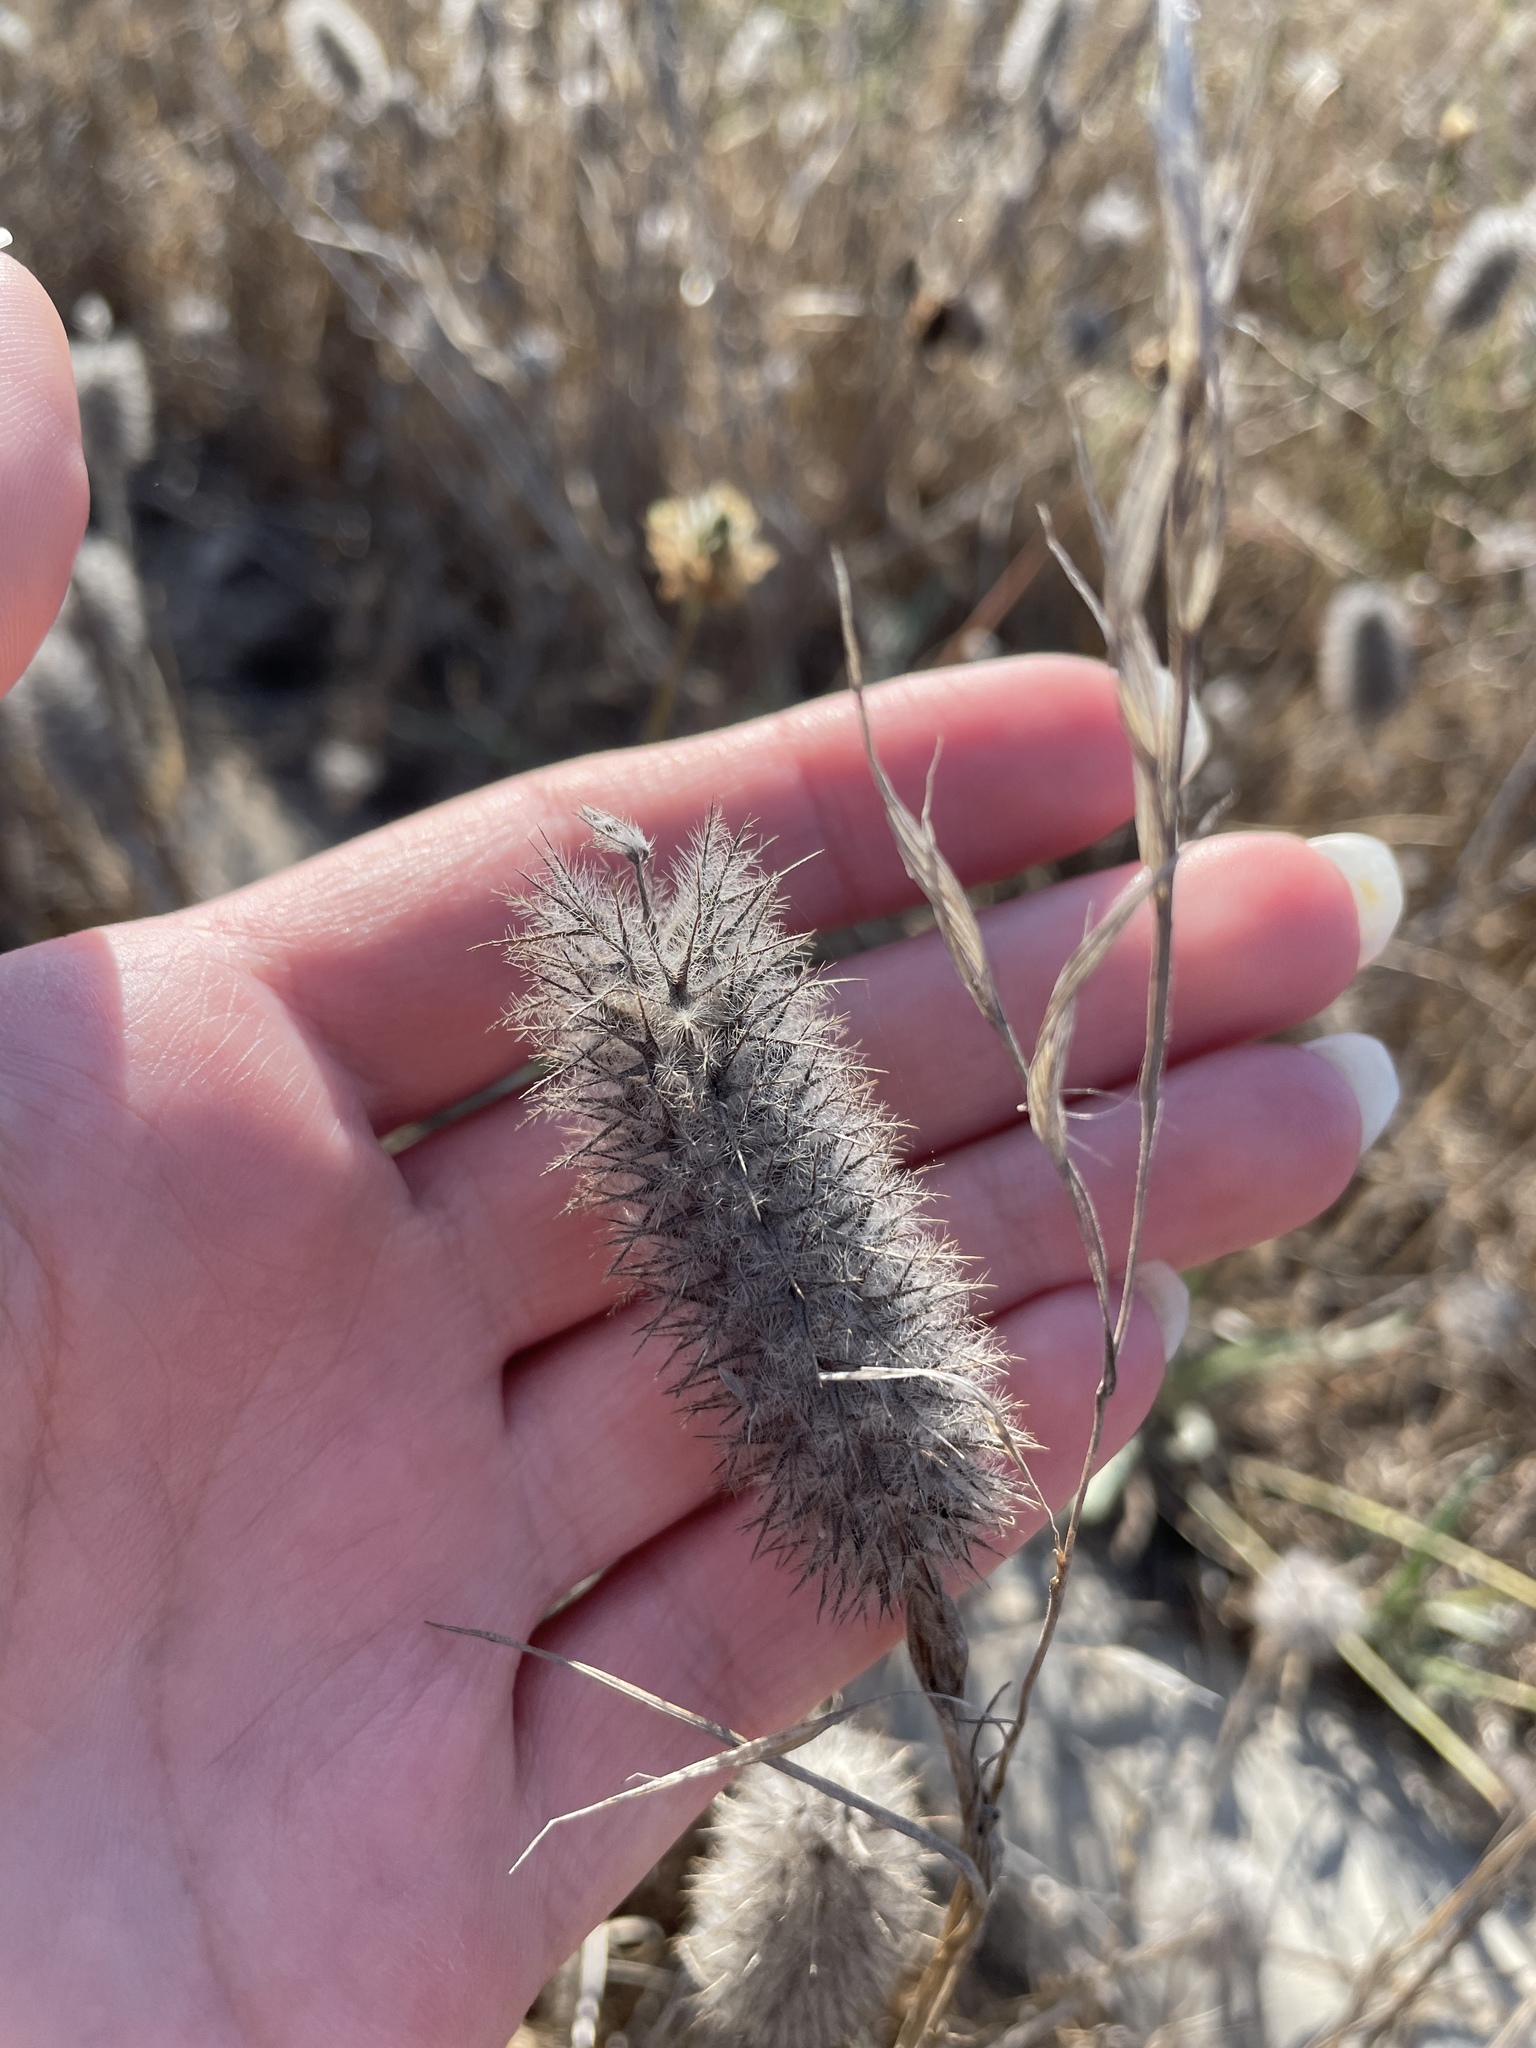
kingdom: Plantae
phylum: Tracheophyta
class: Magnoliopsida
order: Fabales
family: Fabaceae
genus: Trifolium
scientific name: Trifolium angustifolium
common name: Narrow clover
